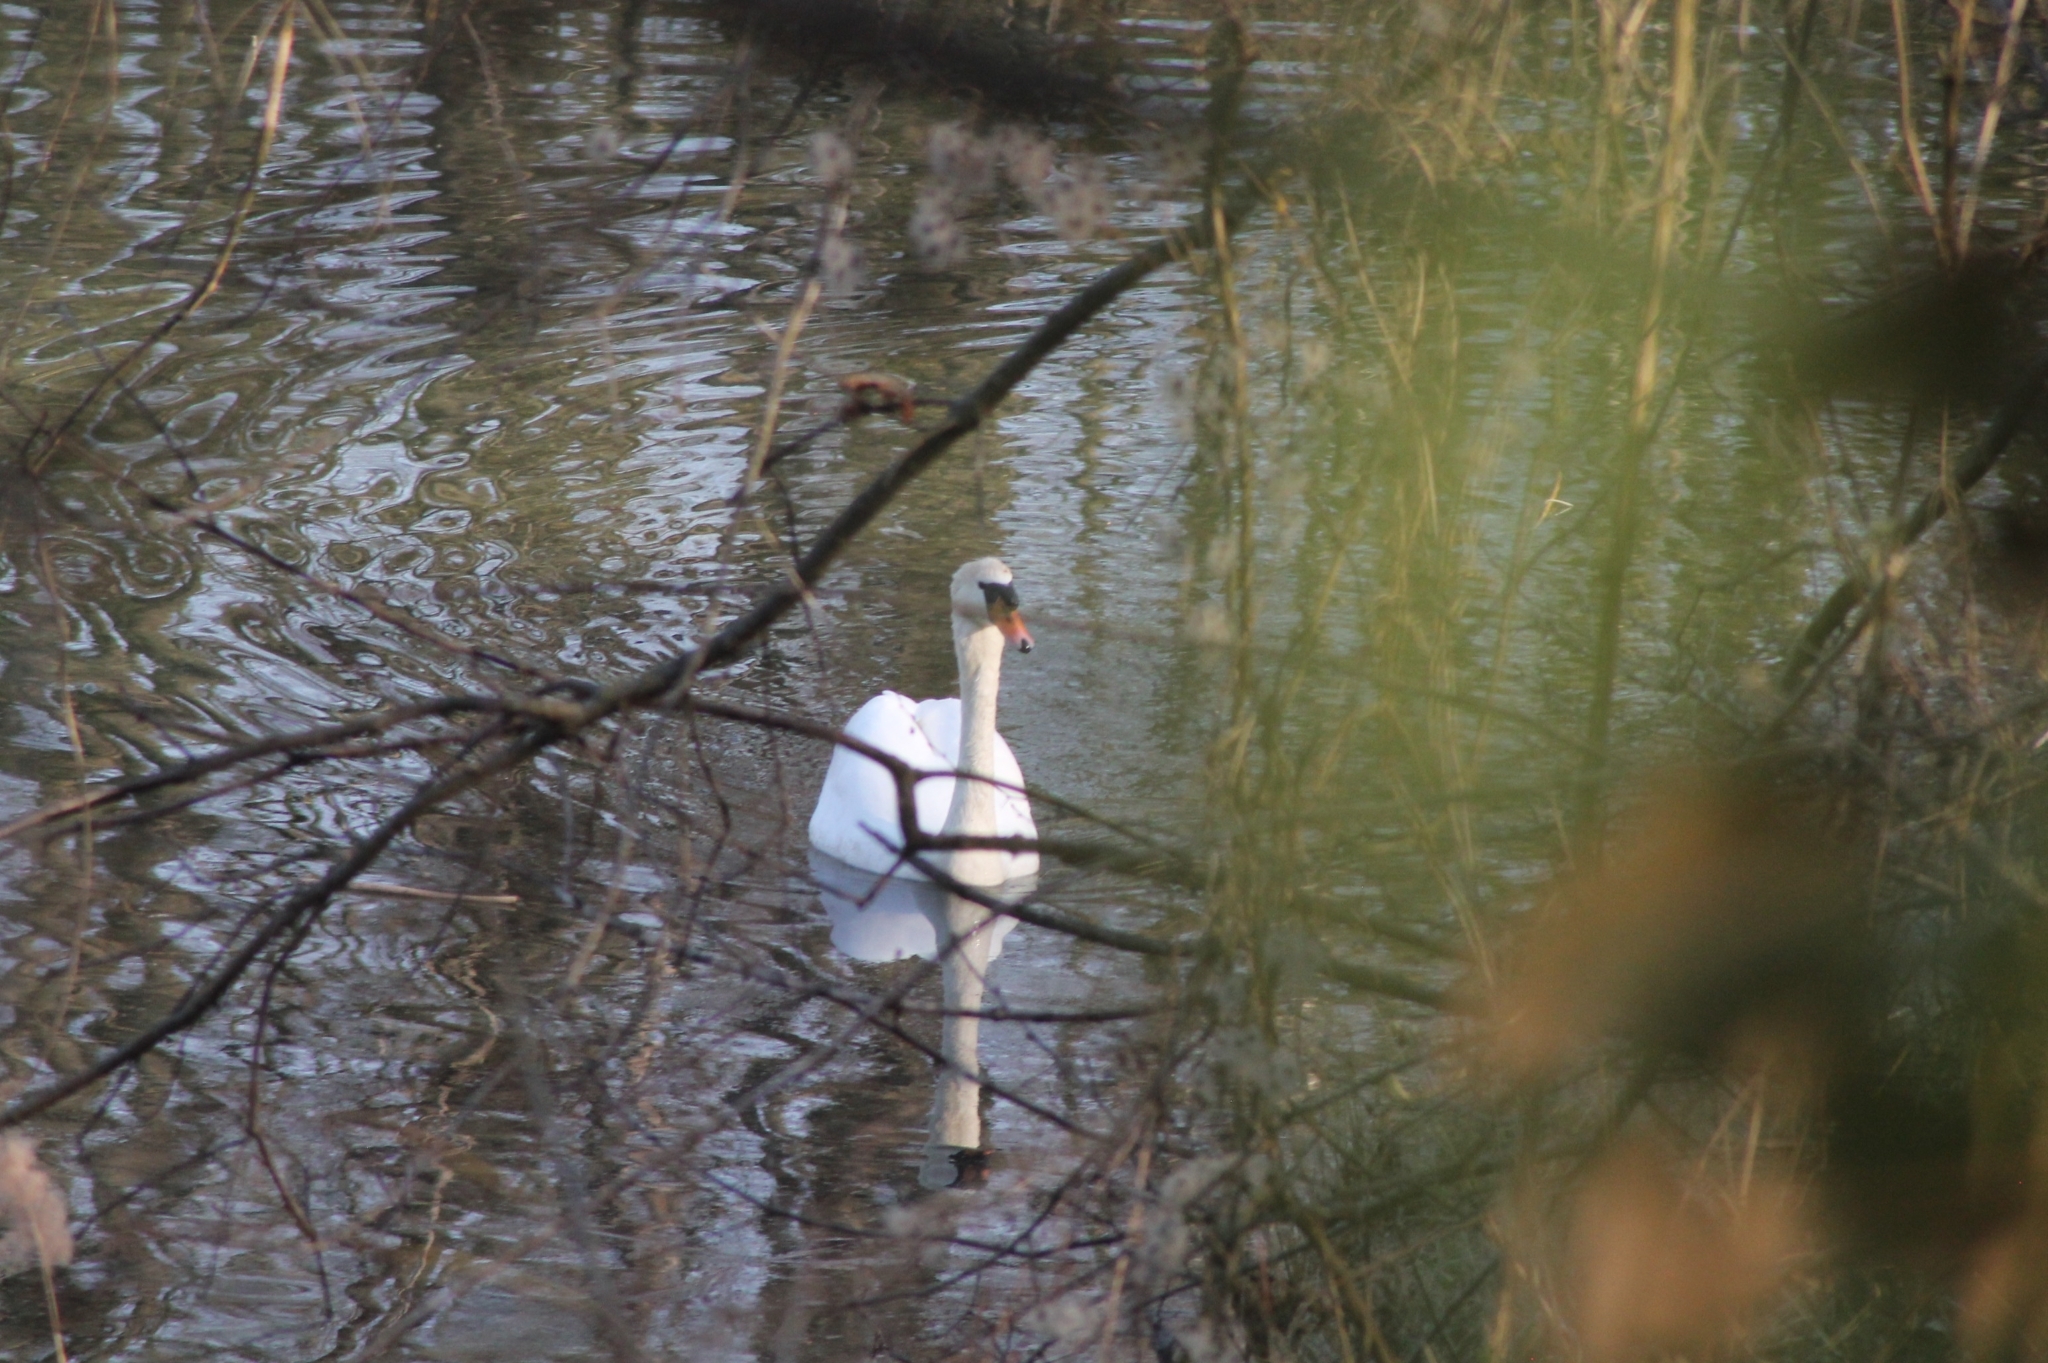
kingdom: Animalia
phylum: Chordata
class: Aves
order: Anseriformes
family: Anatidae
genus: Cygnus
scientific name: Cygnus olor
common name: Mute swan
